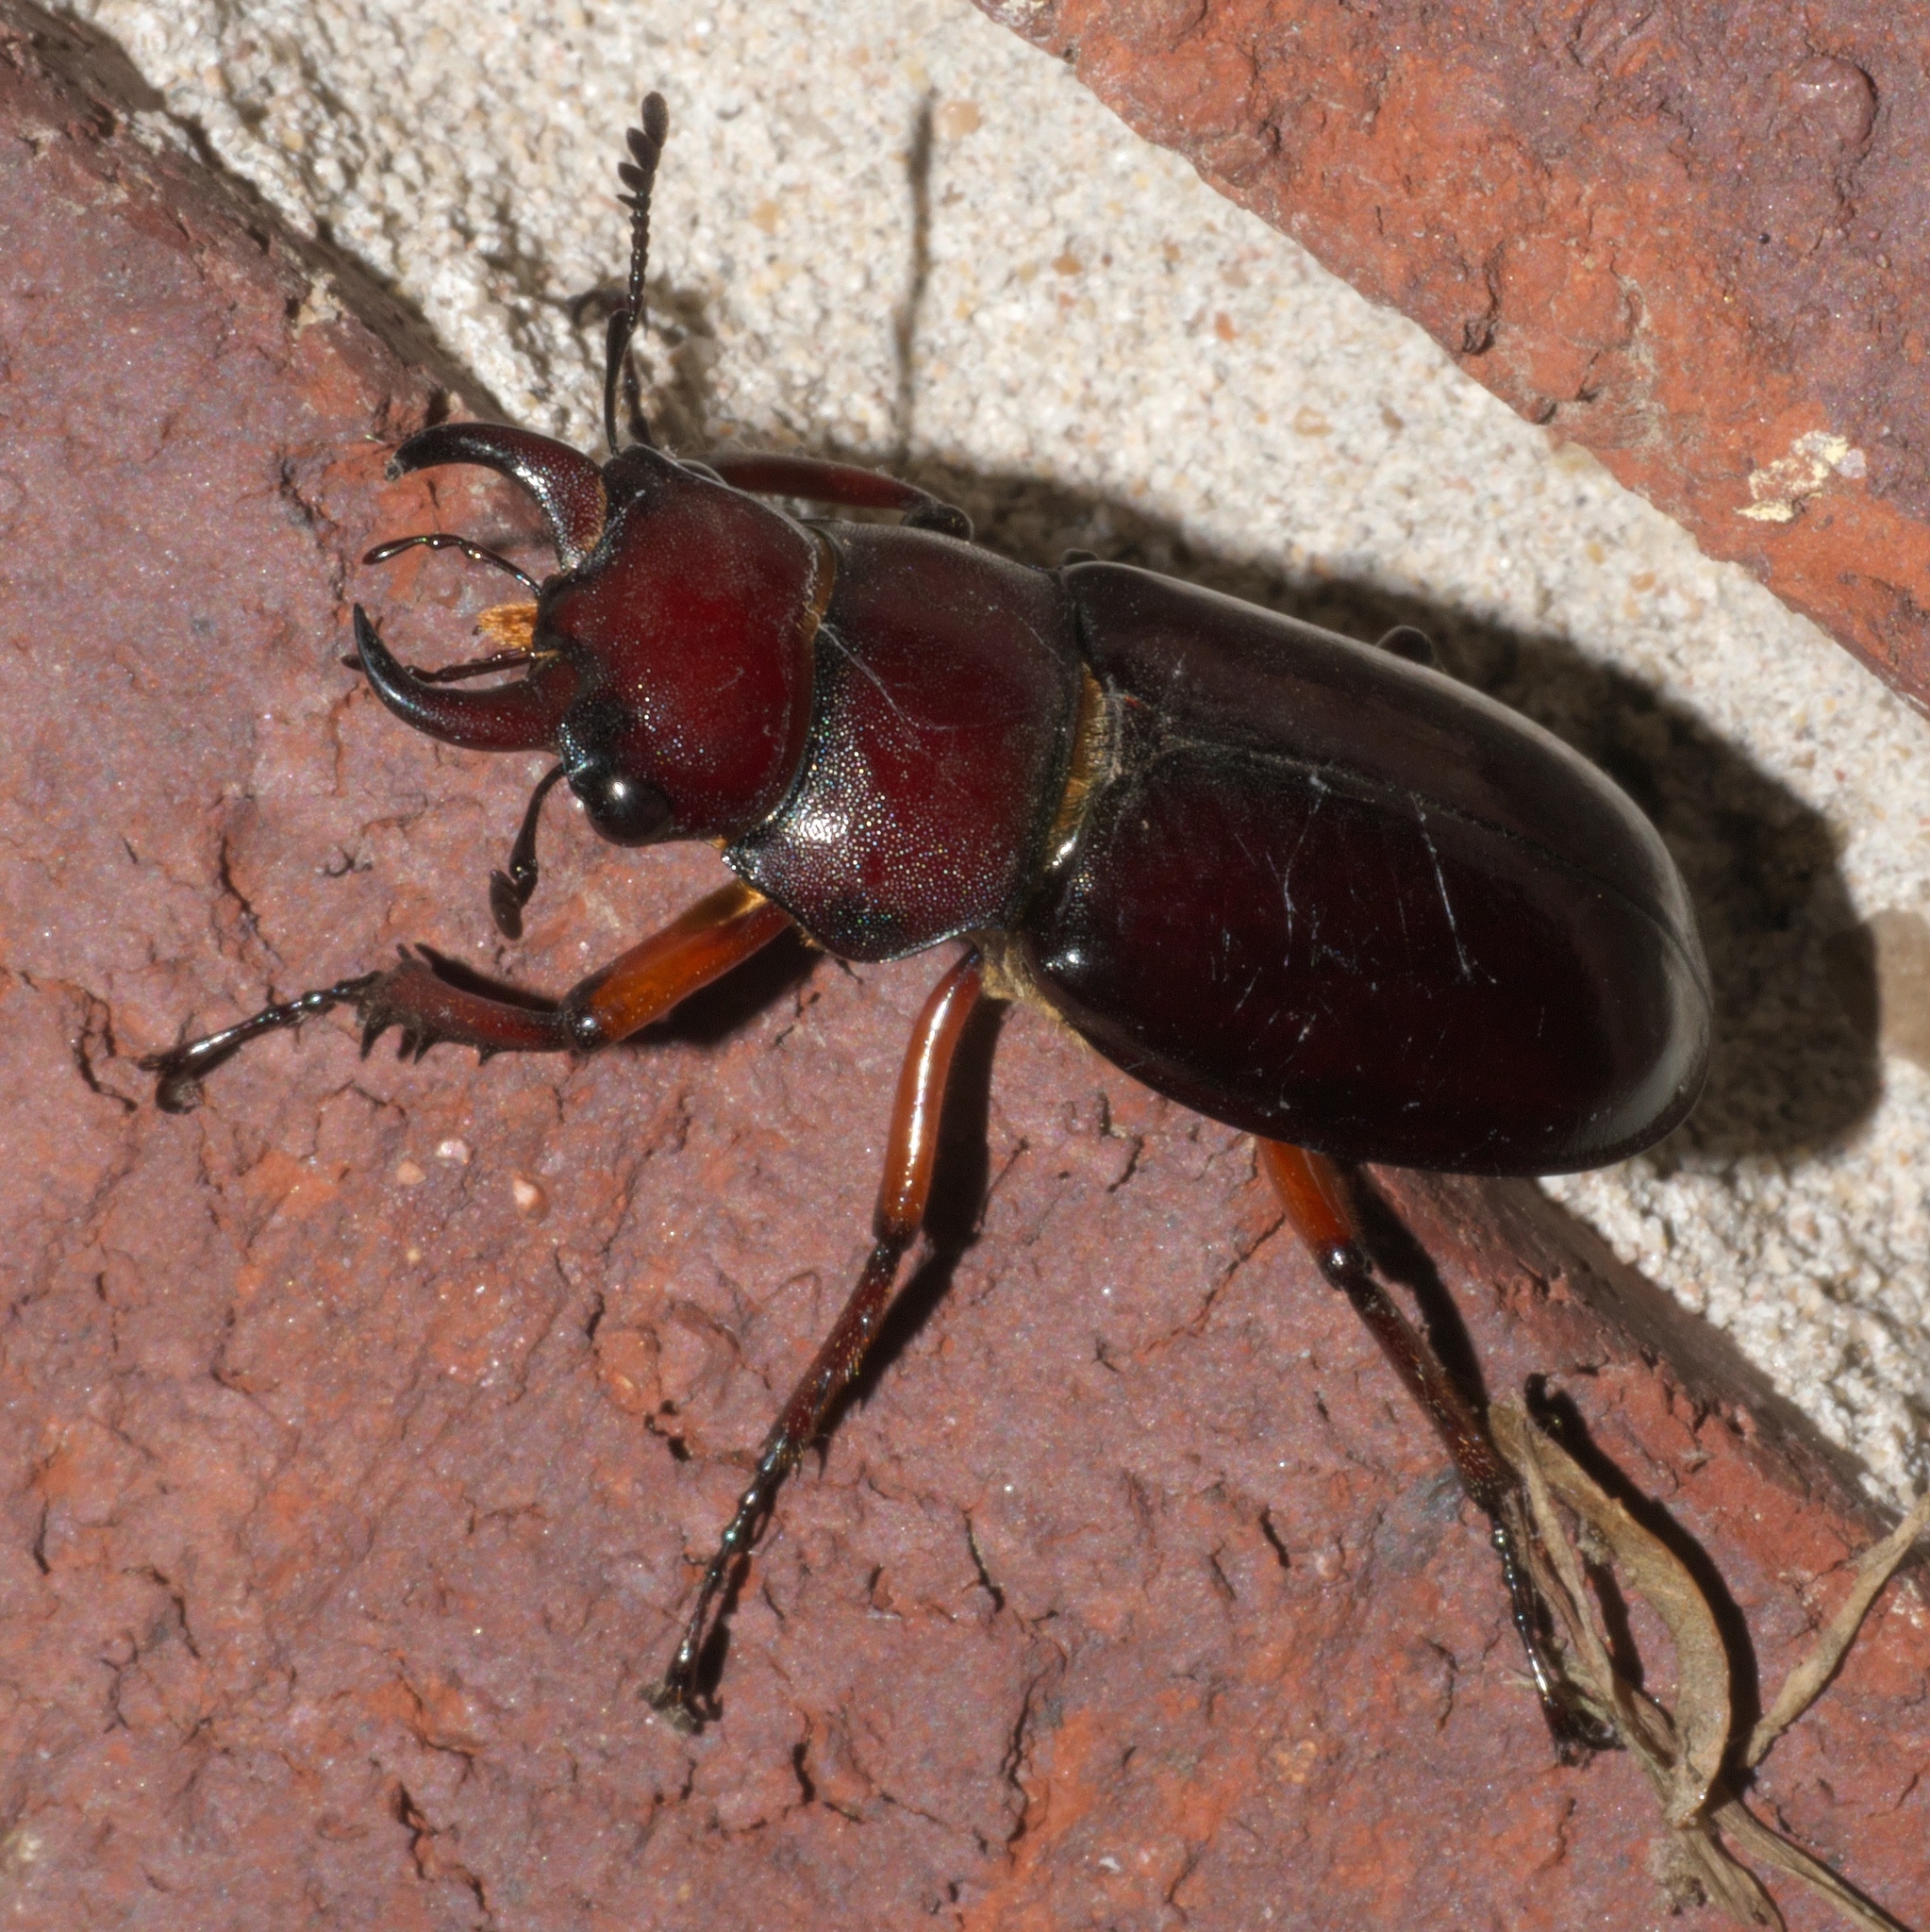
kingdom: Animalia
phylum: Arthropoda
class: Insecta
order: Coleoptera
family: Lucanidae
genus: Lucanus
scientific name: Lucanus capreolus
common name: Stag beetle
